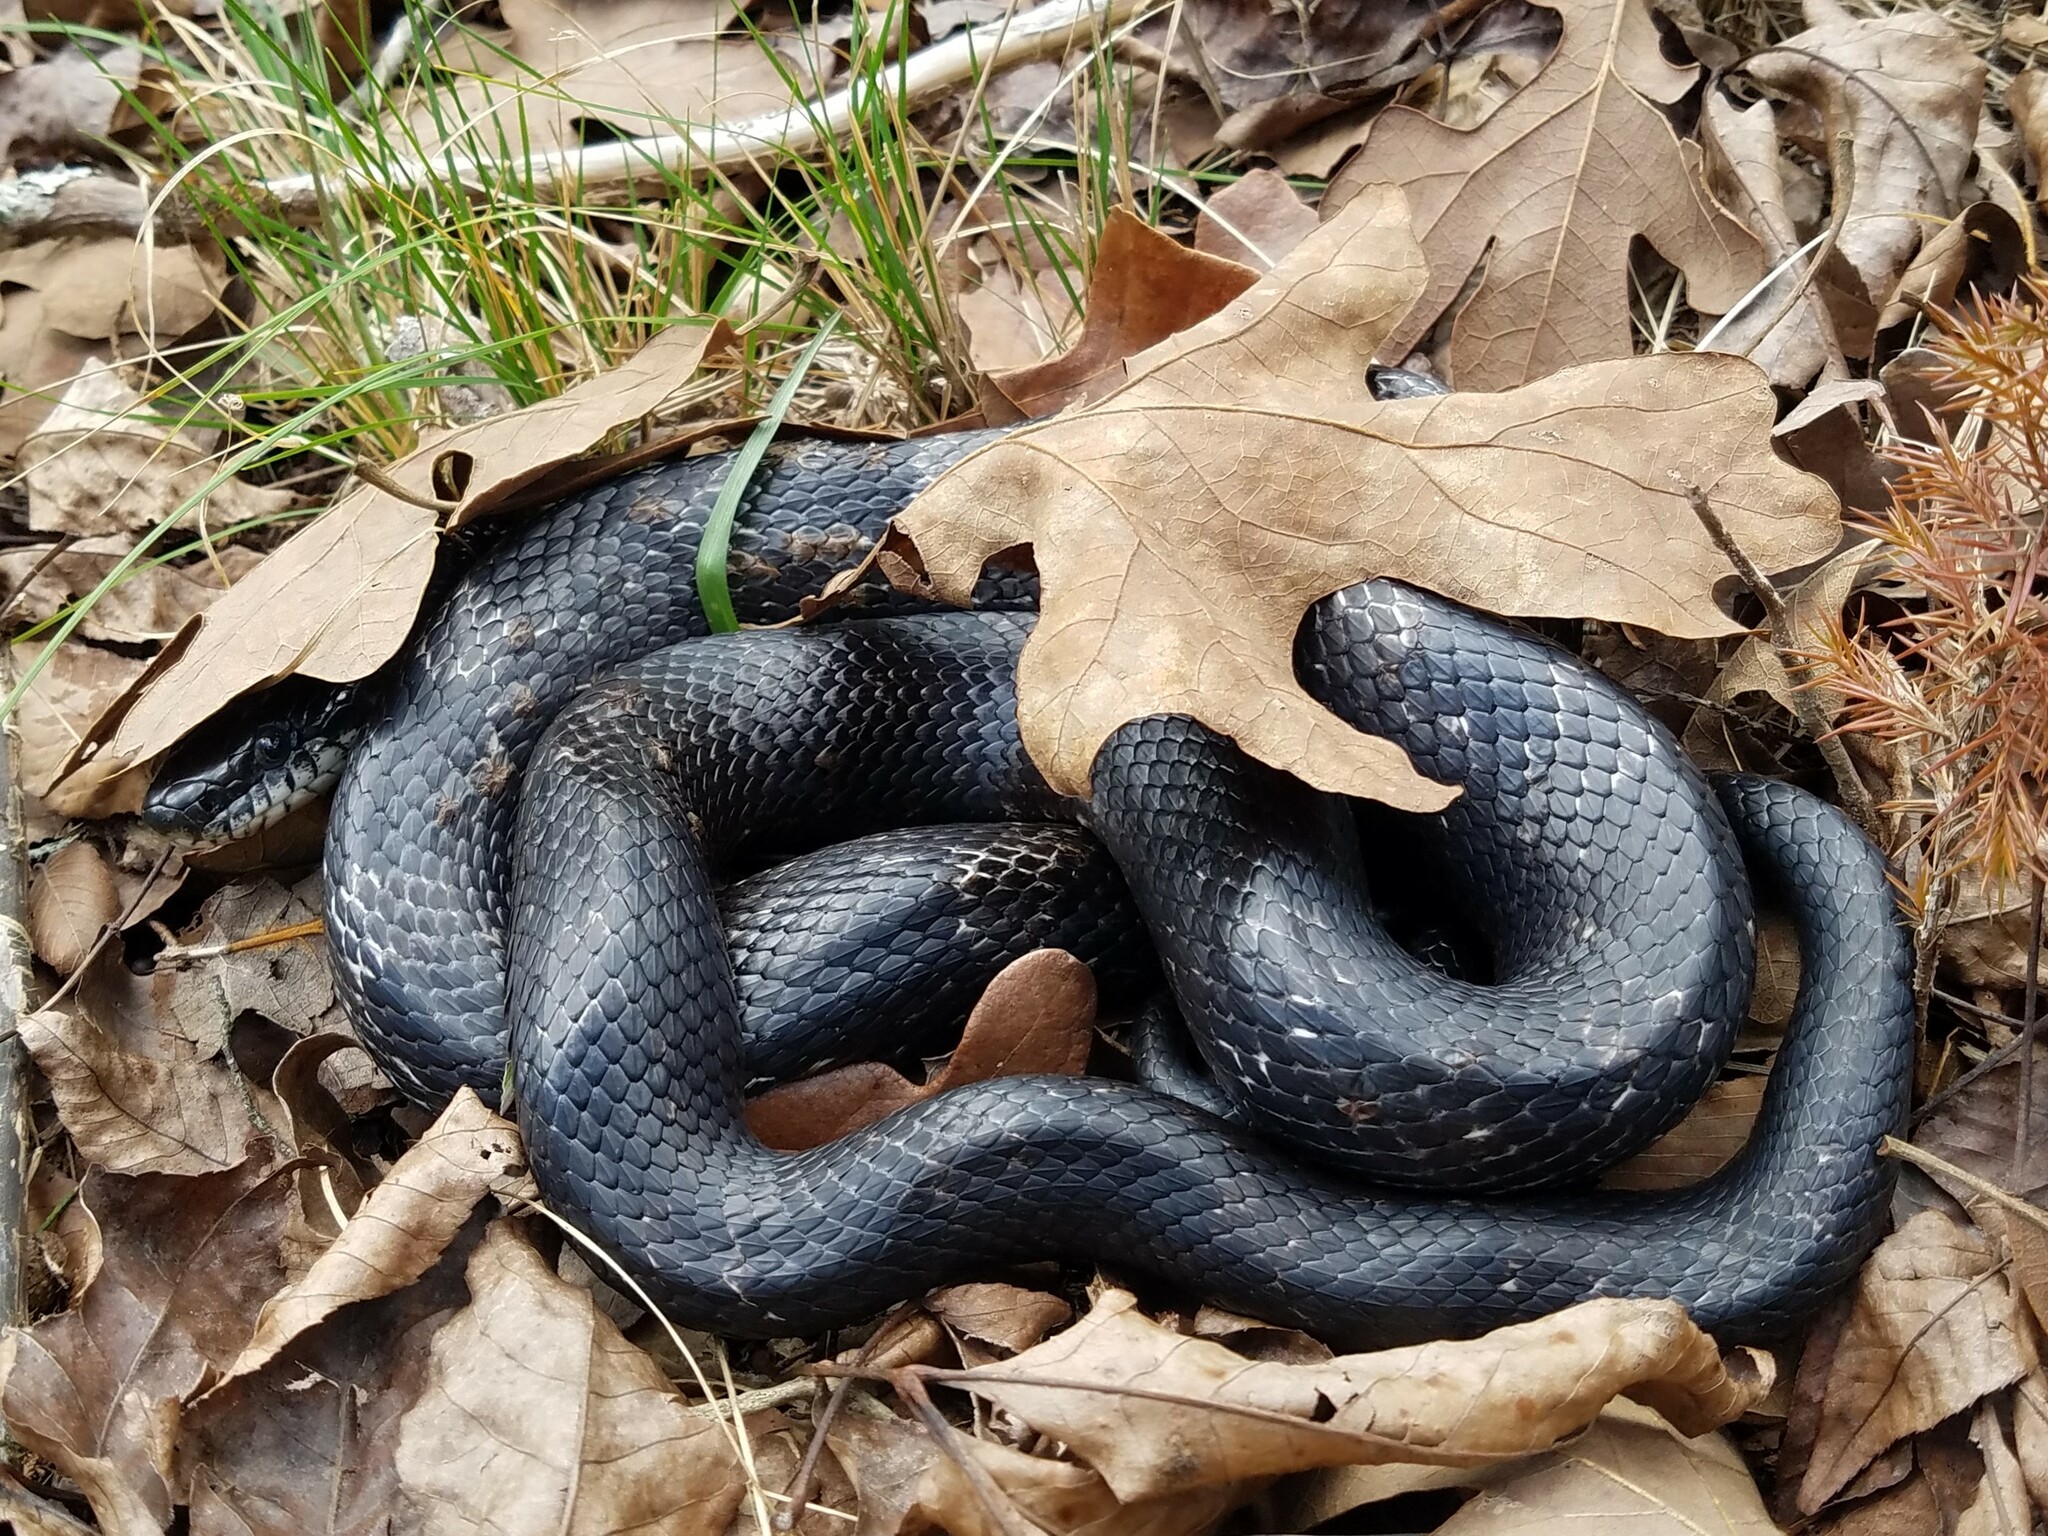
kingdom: Animalia
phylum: Chordata
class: Squamata
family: Colubridae
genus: Pantherophis
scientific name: Pantherophis
